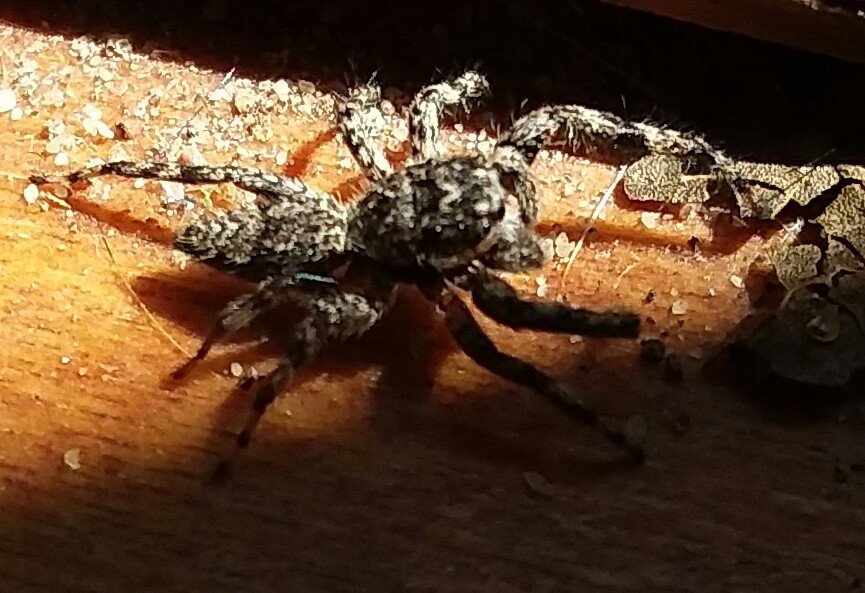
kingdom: Animalia
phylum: Arthropoda
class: Arachnida
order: Araneae
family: Salticidae
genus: Platycryptus
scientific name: Platycryptus undatus
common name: Tan jumping spider
